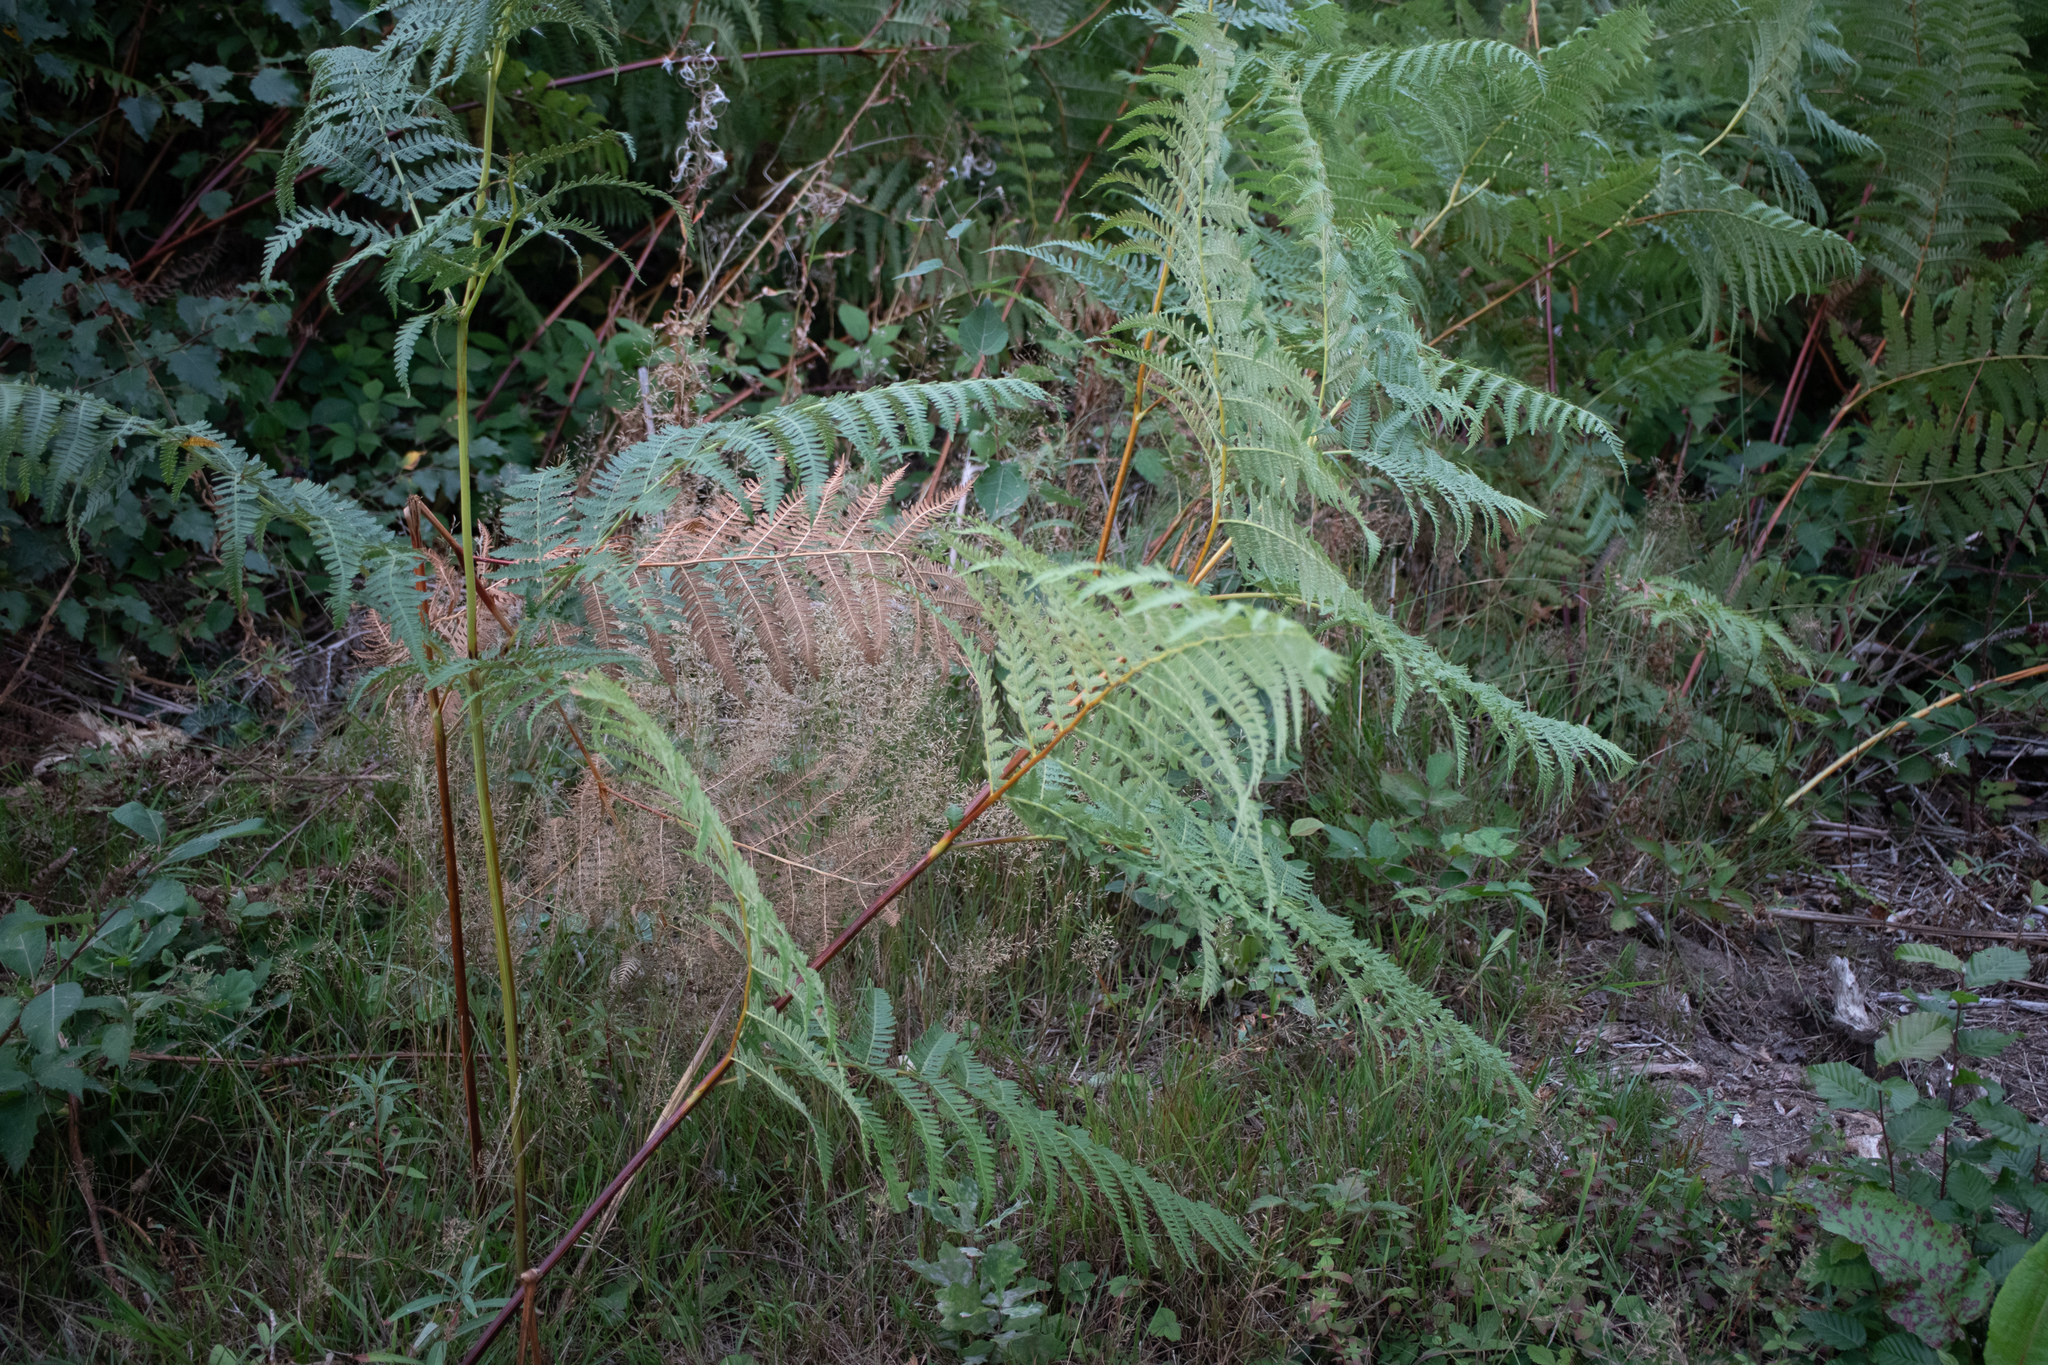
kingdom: Plantae
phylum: Tracheophyta
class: Polypodiopsida
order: Polypodiales
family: Dennstaedtiaceae
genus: Pteridium
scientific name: Pteridium aquilinum
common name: Bracken
